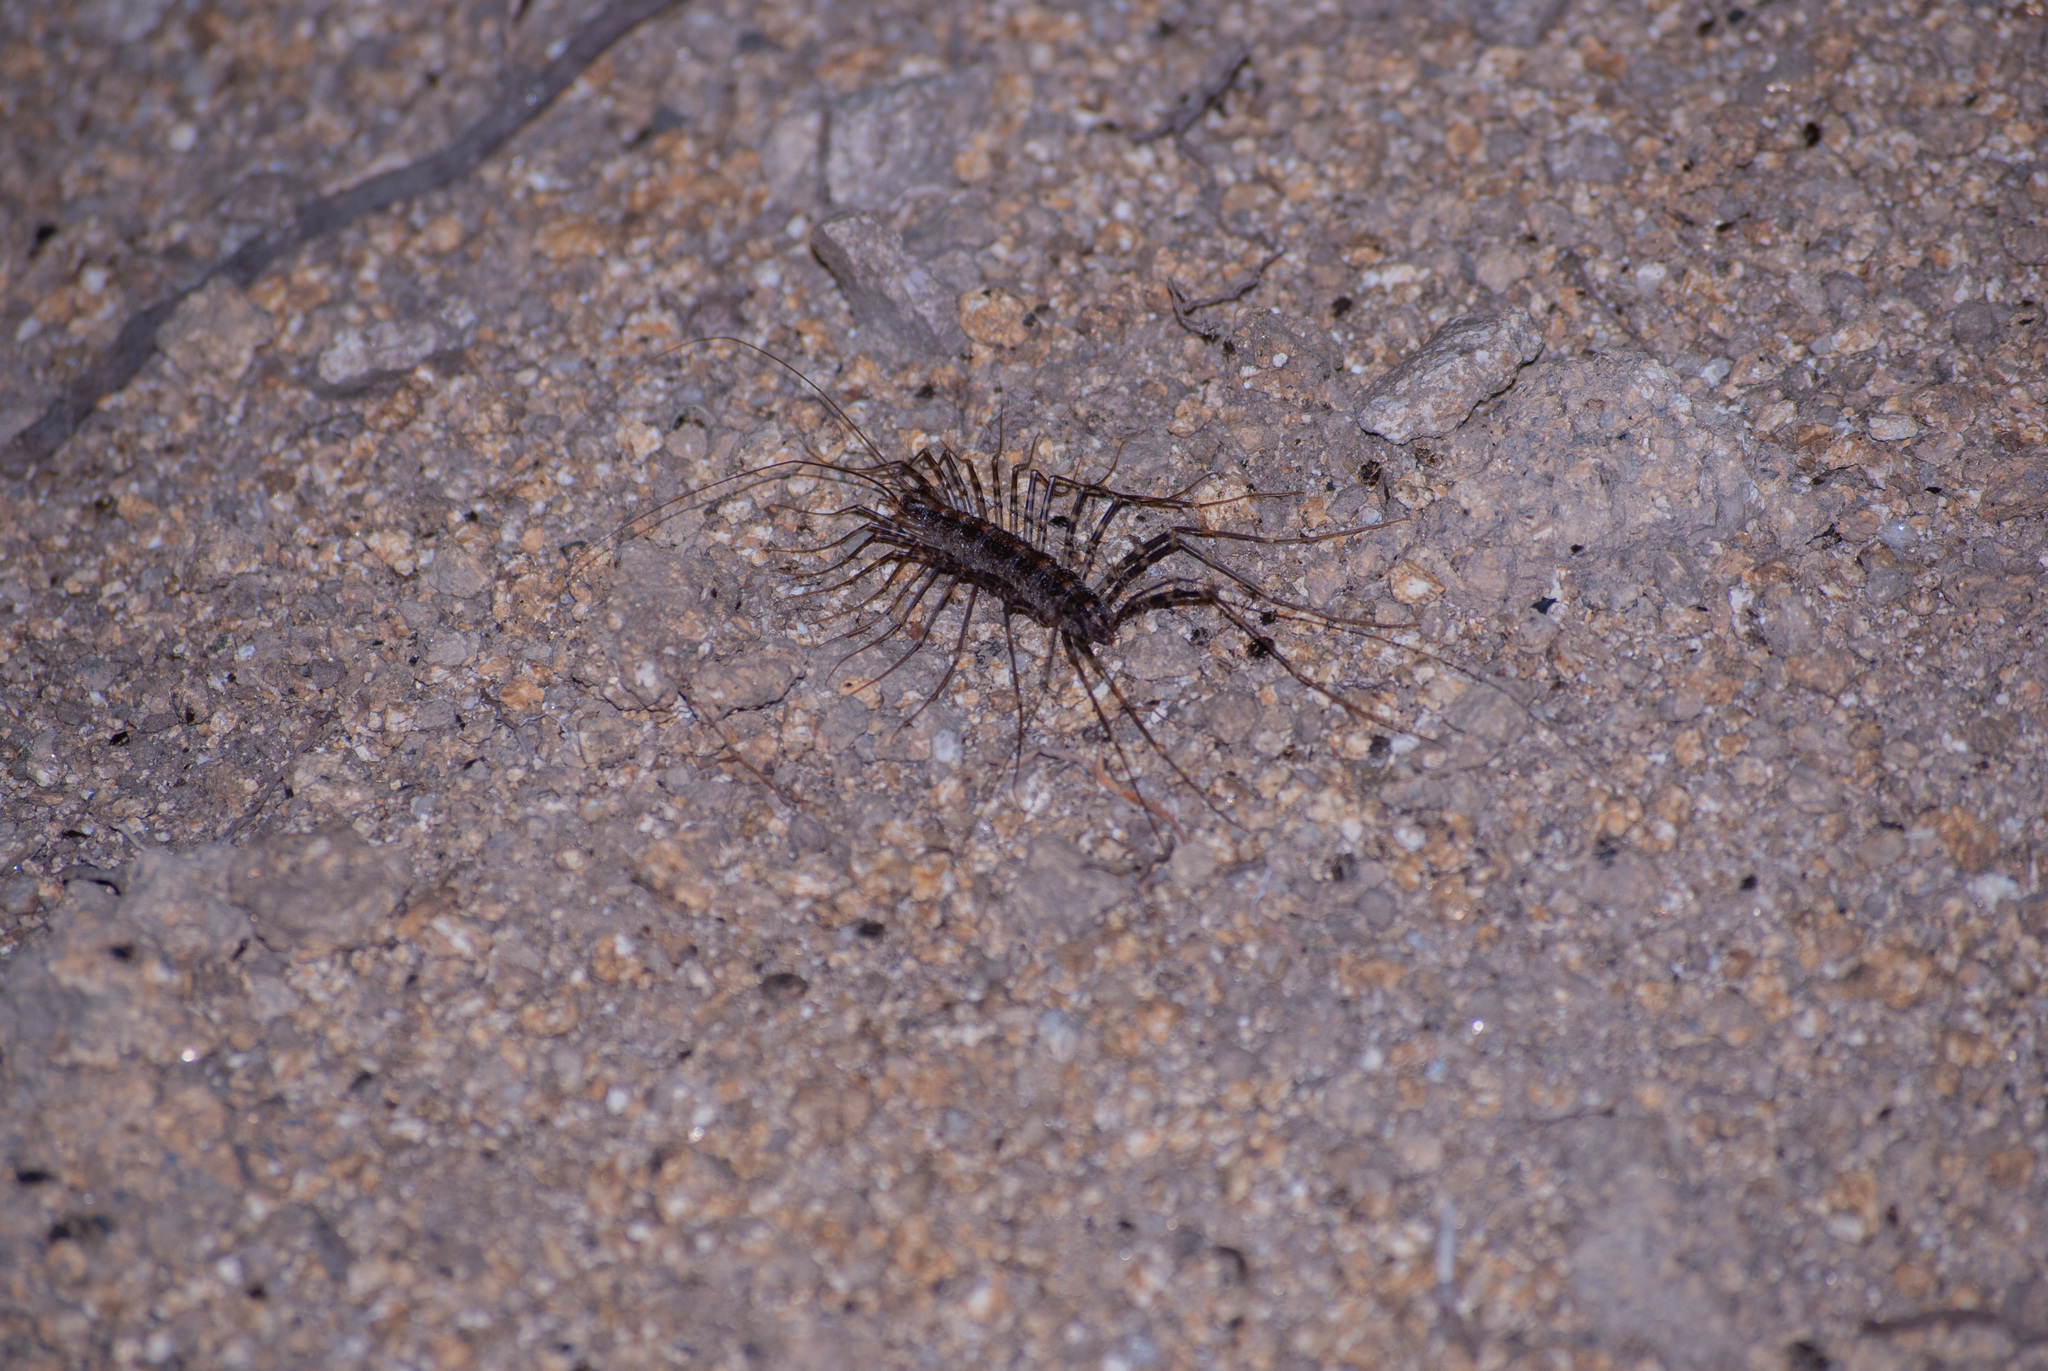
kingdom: Animalia
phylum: Arthropoda
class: Chilopoda
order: Scutigeromorpha
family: Pselliodidae
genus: Sphendononema
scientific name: Sphendononema guildingii
